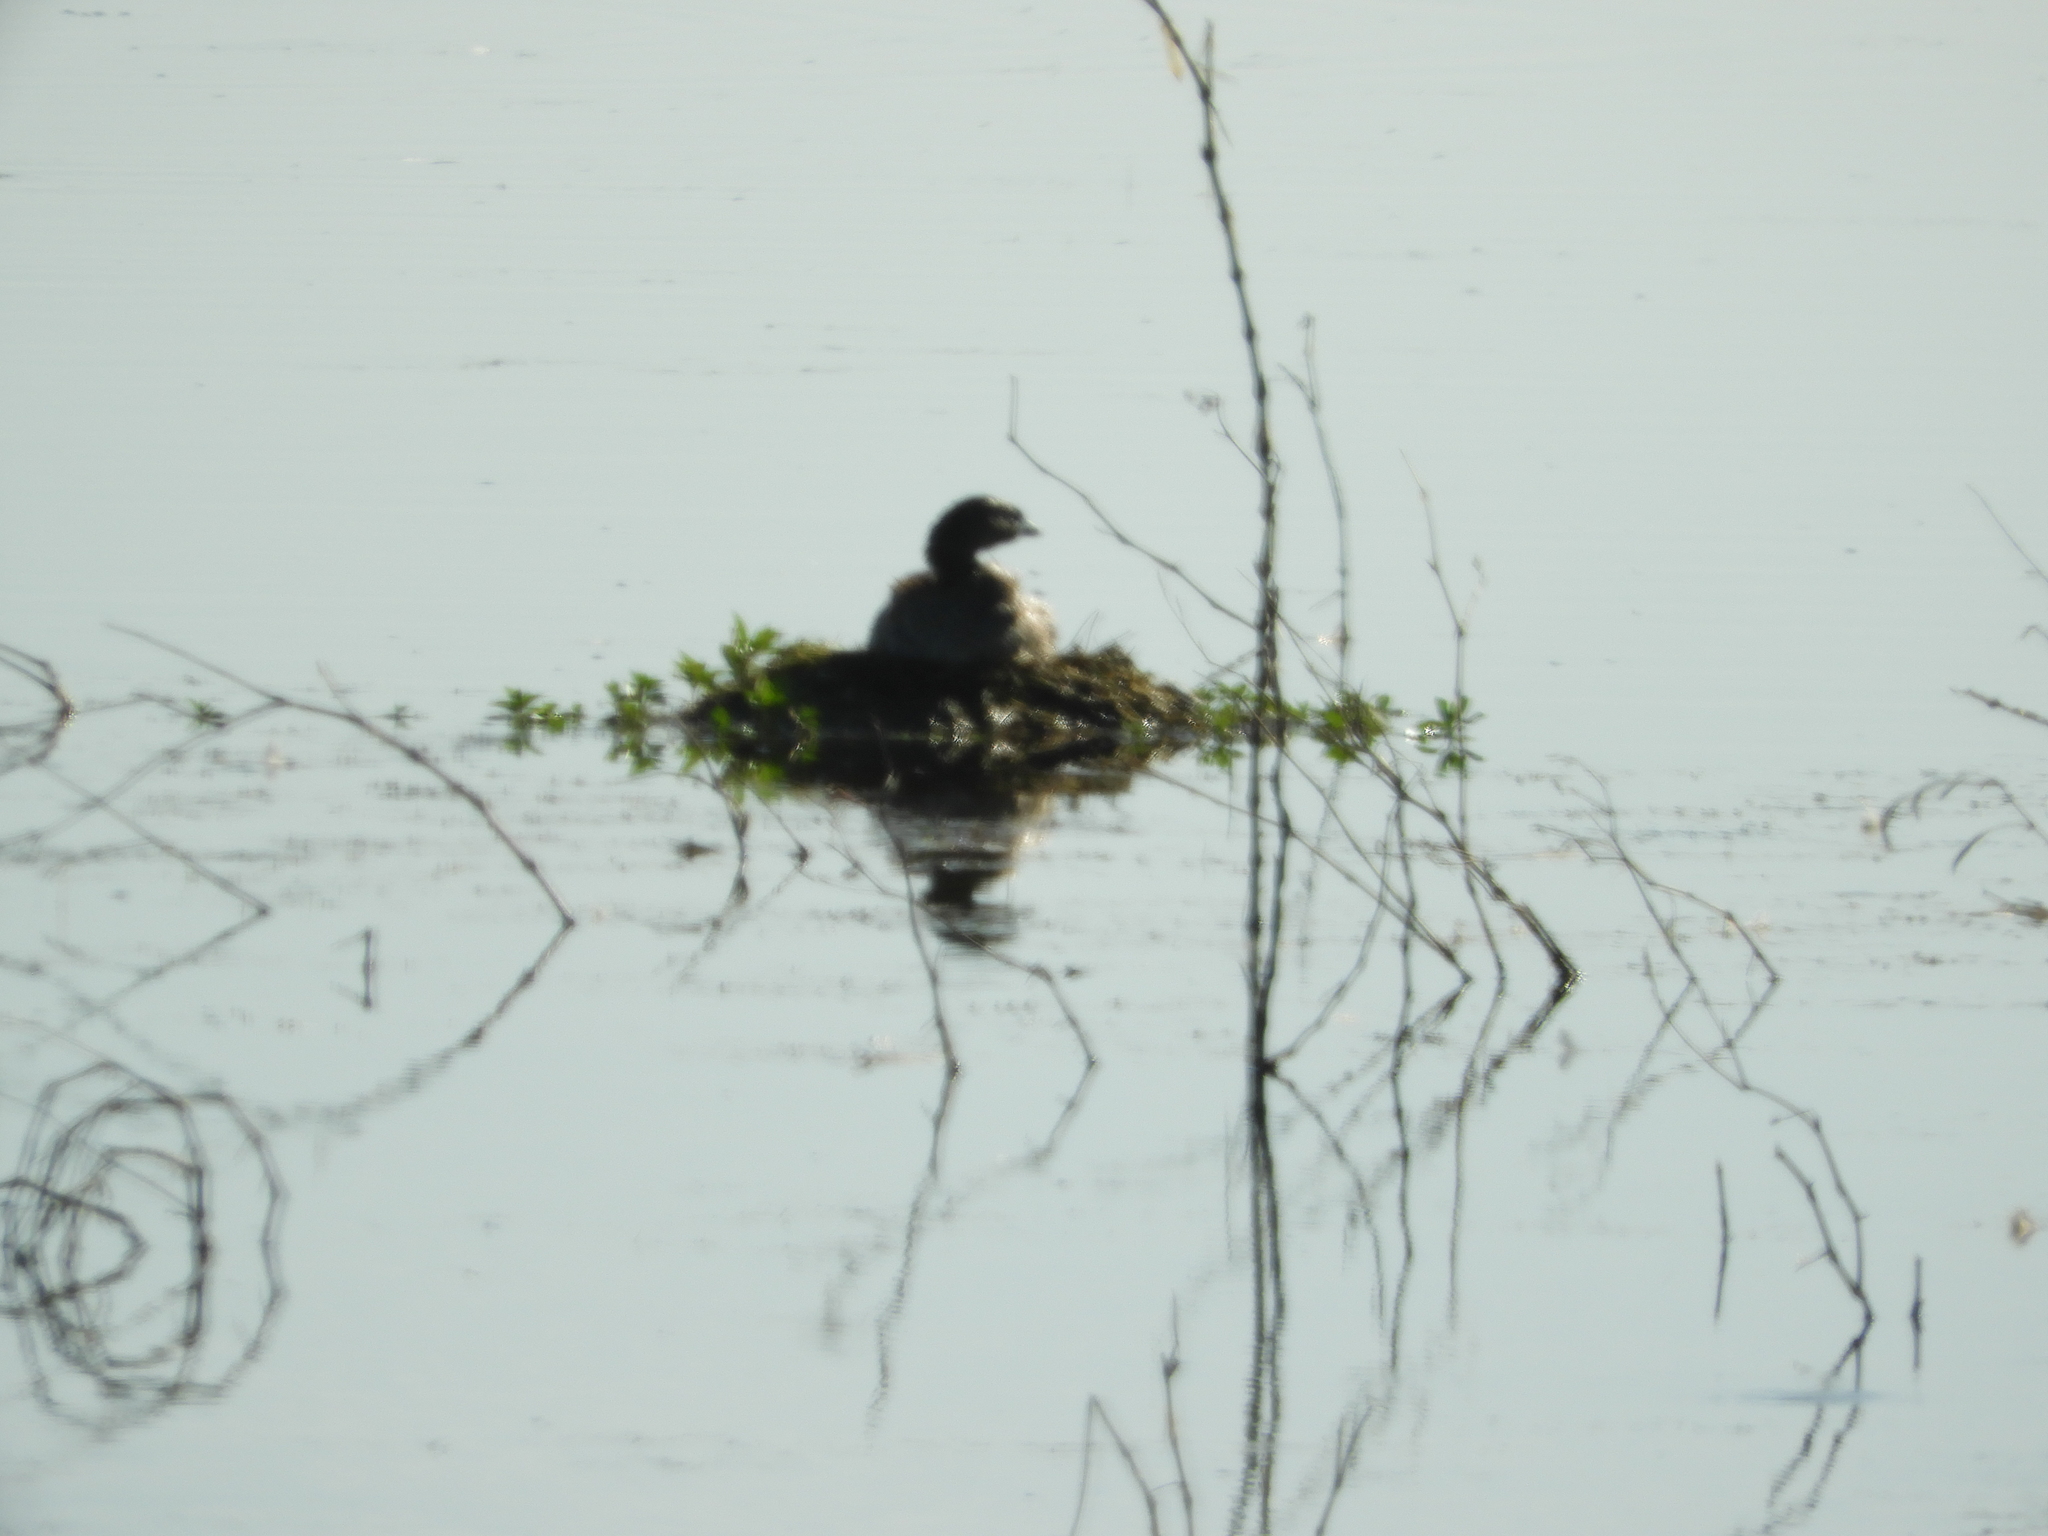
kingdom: Animalia
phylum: Chordata
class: Aves
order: Podicipediformes
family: Podicipedidae
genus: Podilymbus
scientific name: Podilymbus podiceps
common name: Pied-billed grebe
